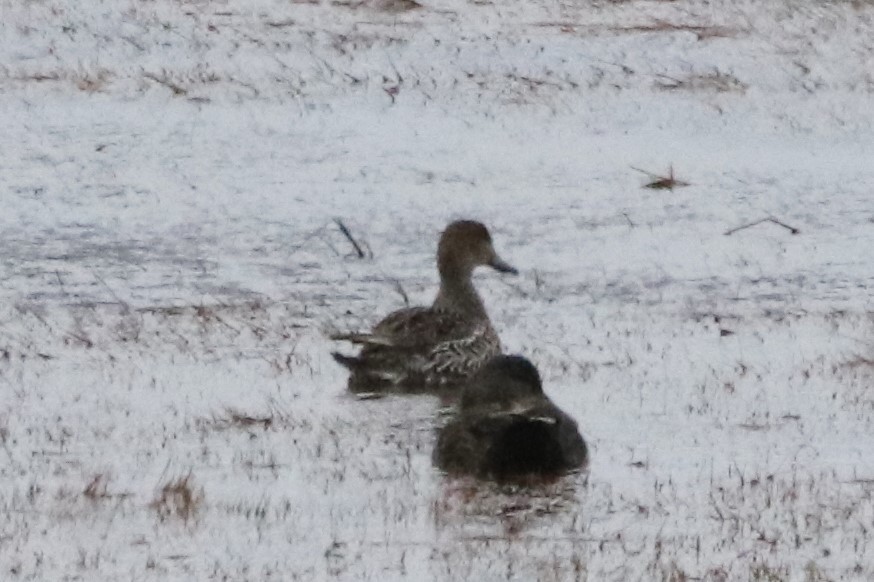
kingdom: Animalia
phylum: Chordata
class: Aves
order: Anseriformes
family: Anatidae
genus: Anas
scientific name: Anas acuta
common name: Northern pintail
